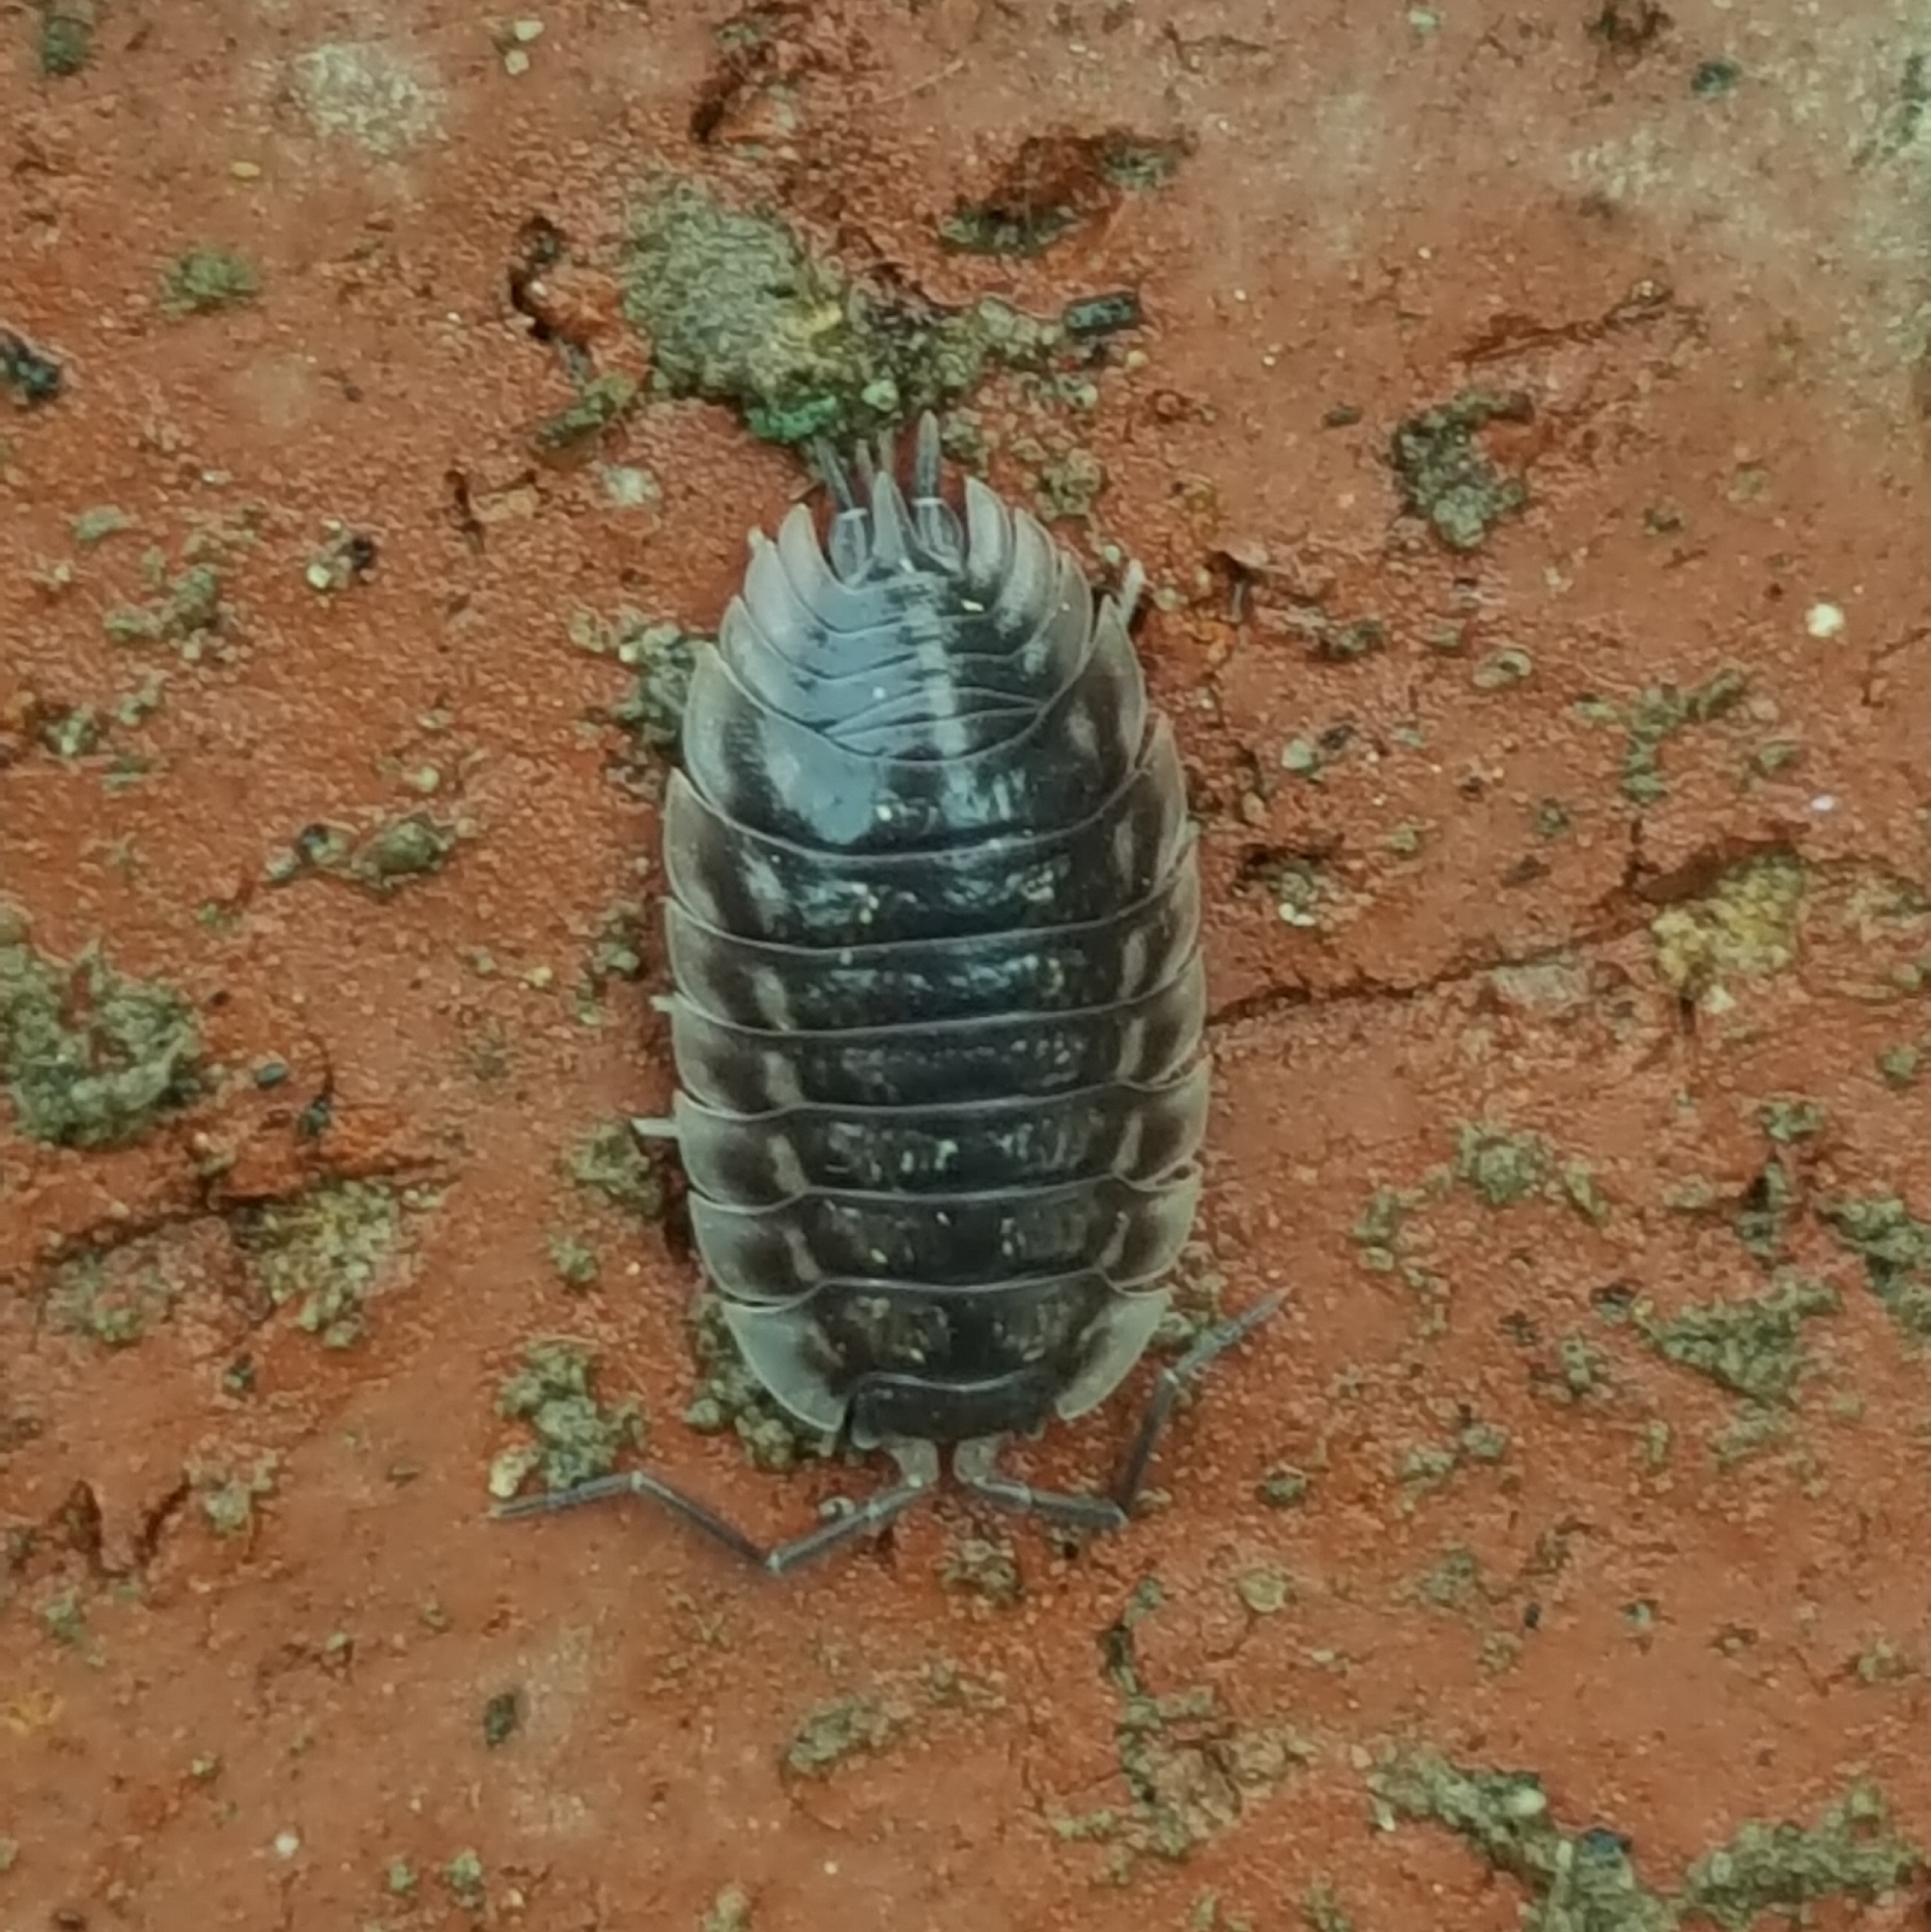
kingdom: Animalia
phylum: Arthropoda
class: Malacostraca
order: Isopoda
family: Oniscidae
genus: Oniscus
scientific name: Oniscus asellus
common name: Common shiny woodlouse
